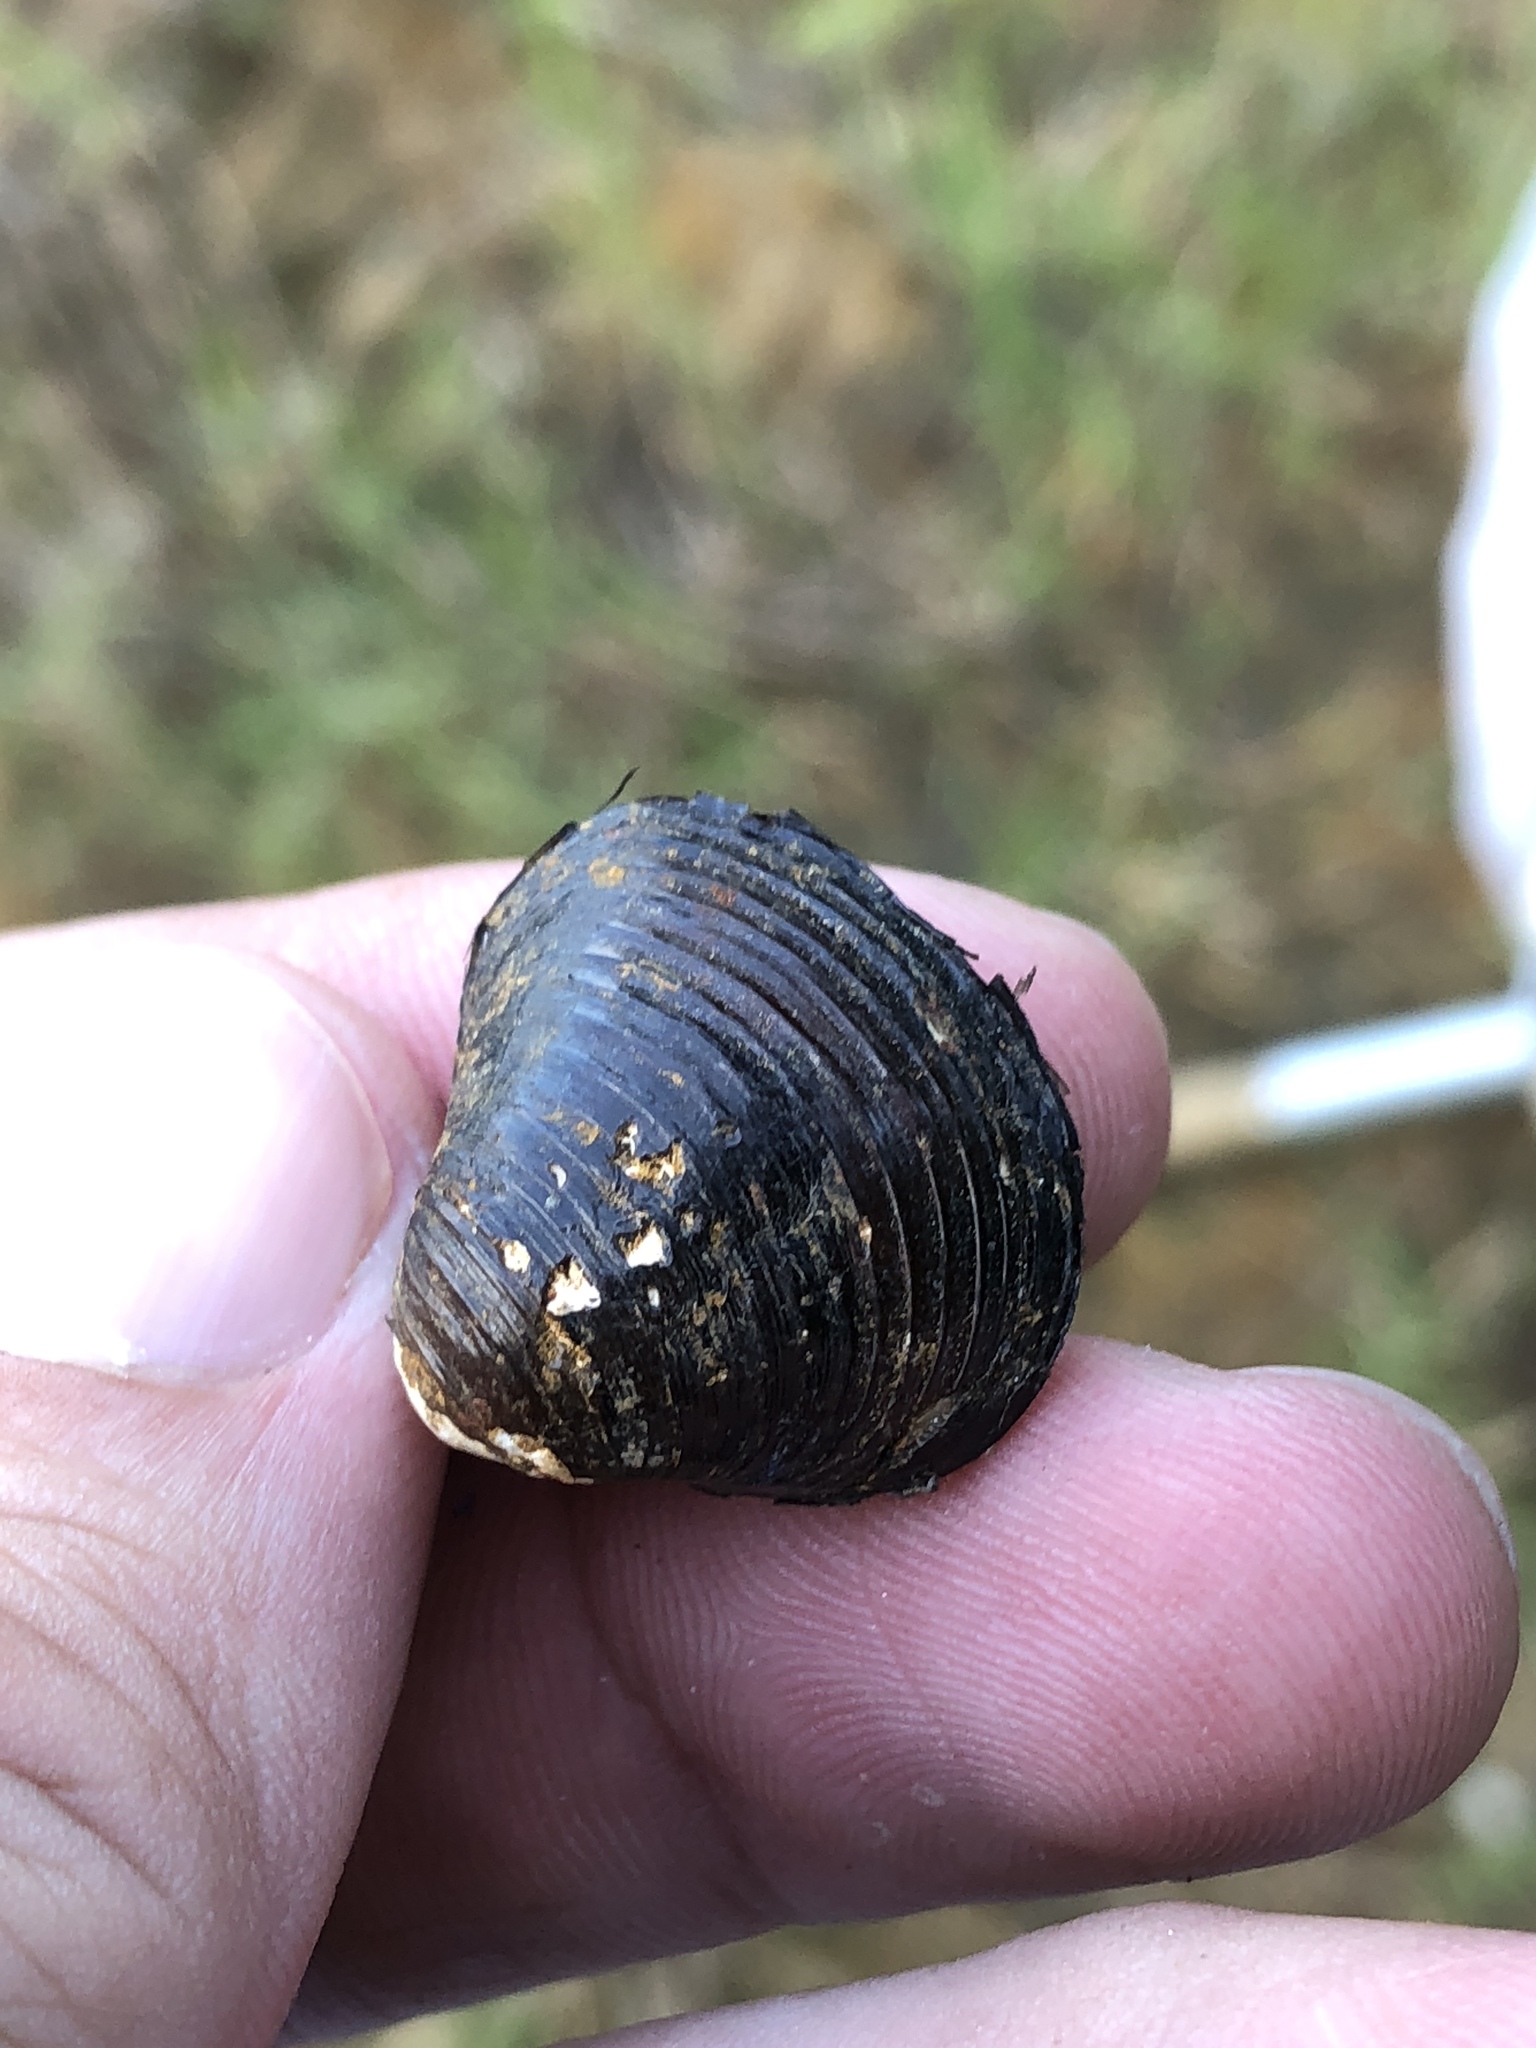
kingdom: Animalia
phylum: Mollusca
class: Bivalvia
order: Venerida
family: Cyrenidae
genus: Corbicula
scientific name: Corbicula fluminea
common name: Asian clam
